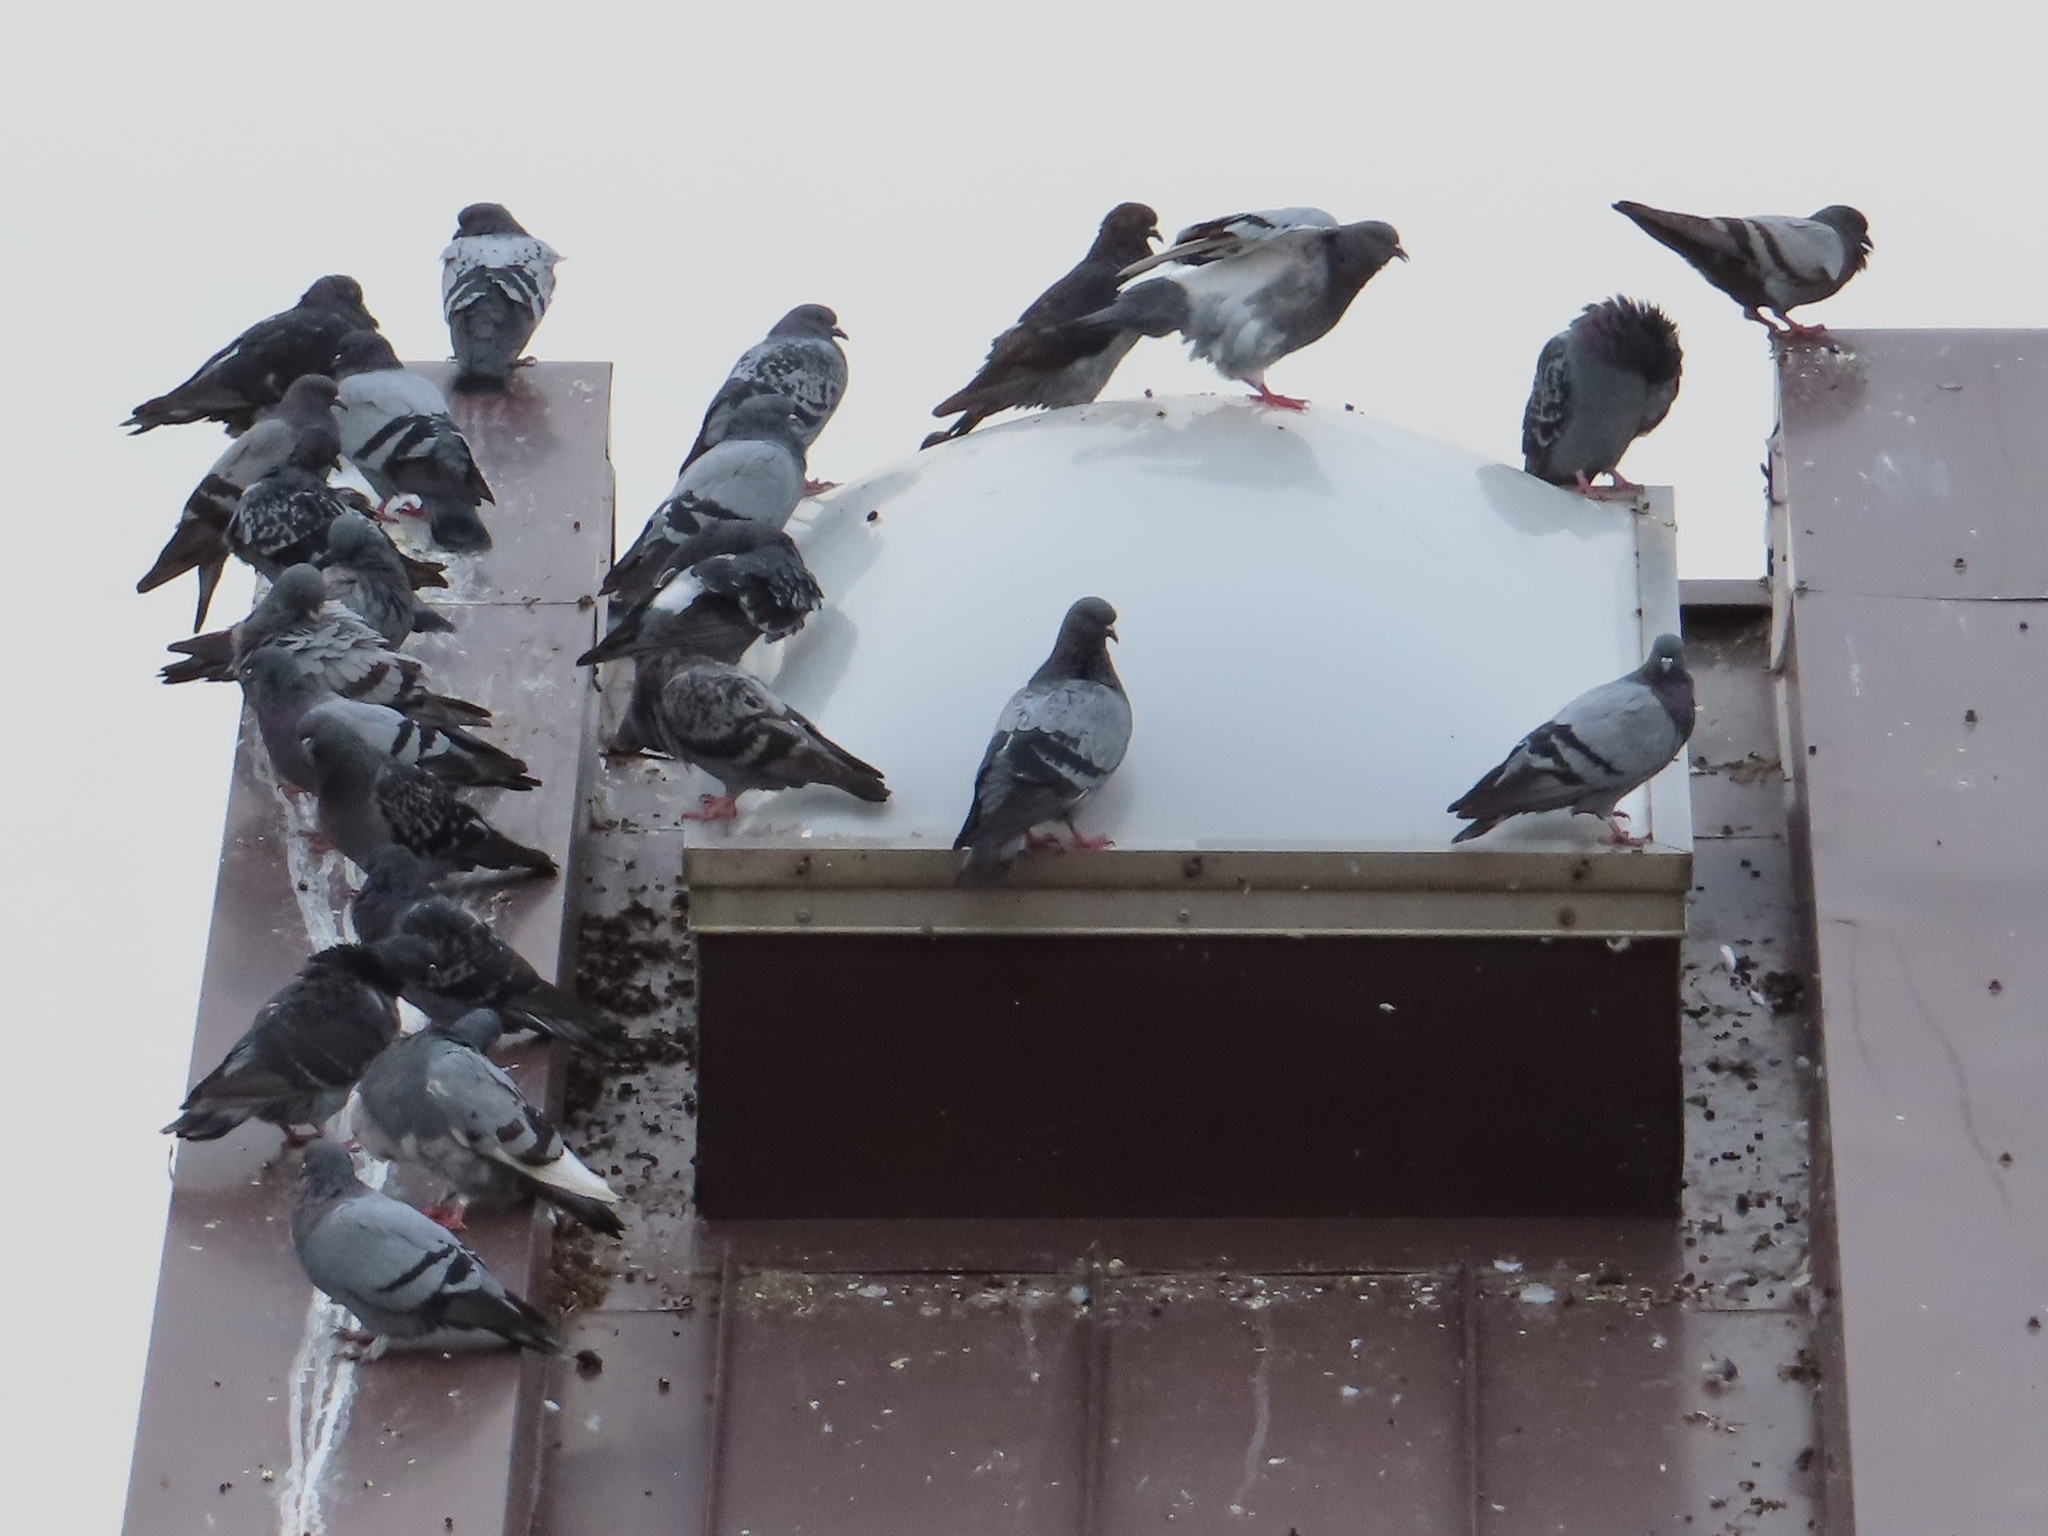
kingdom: Animalia
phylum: Chordata
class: Aves
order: Columbiformes
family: Columbidae
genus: Columba
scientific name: Columba livia
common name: Rock pigeon
